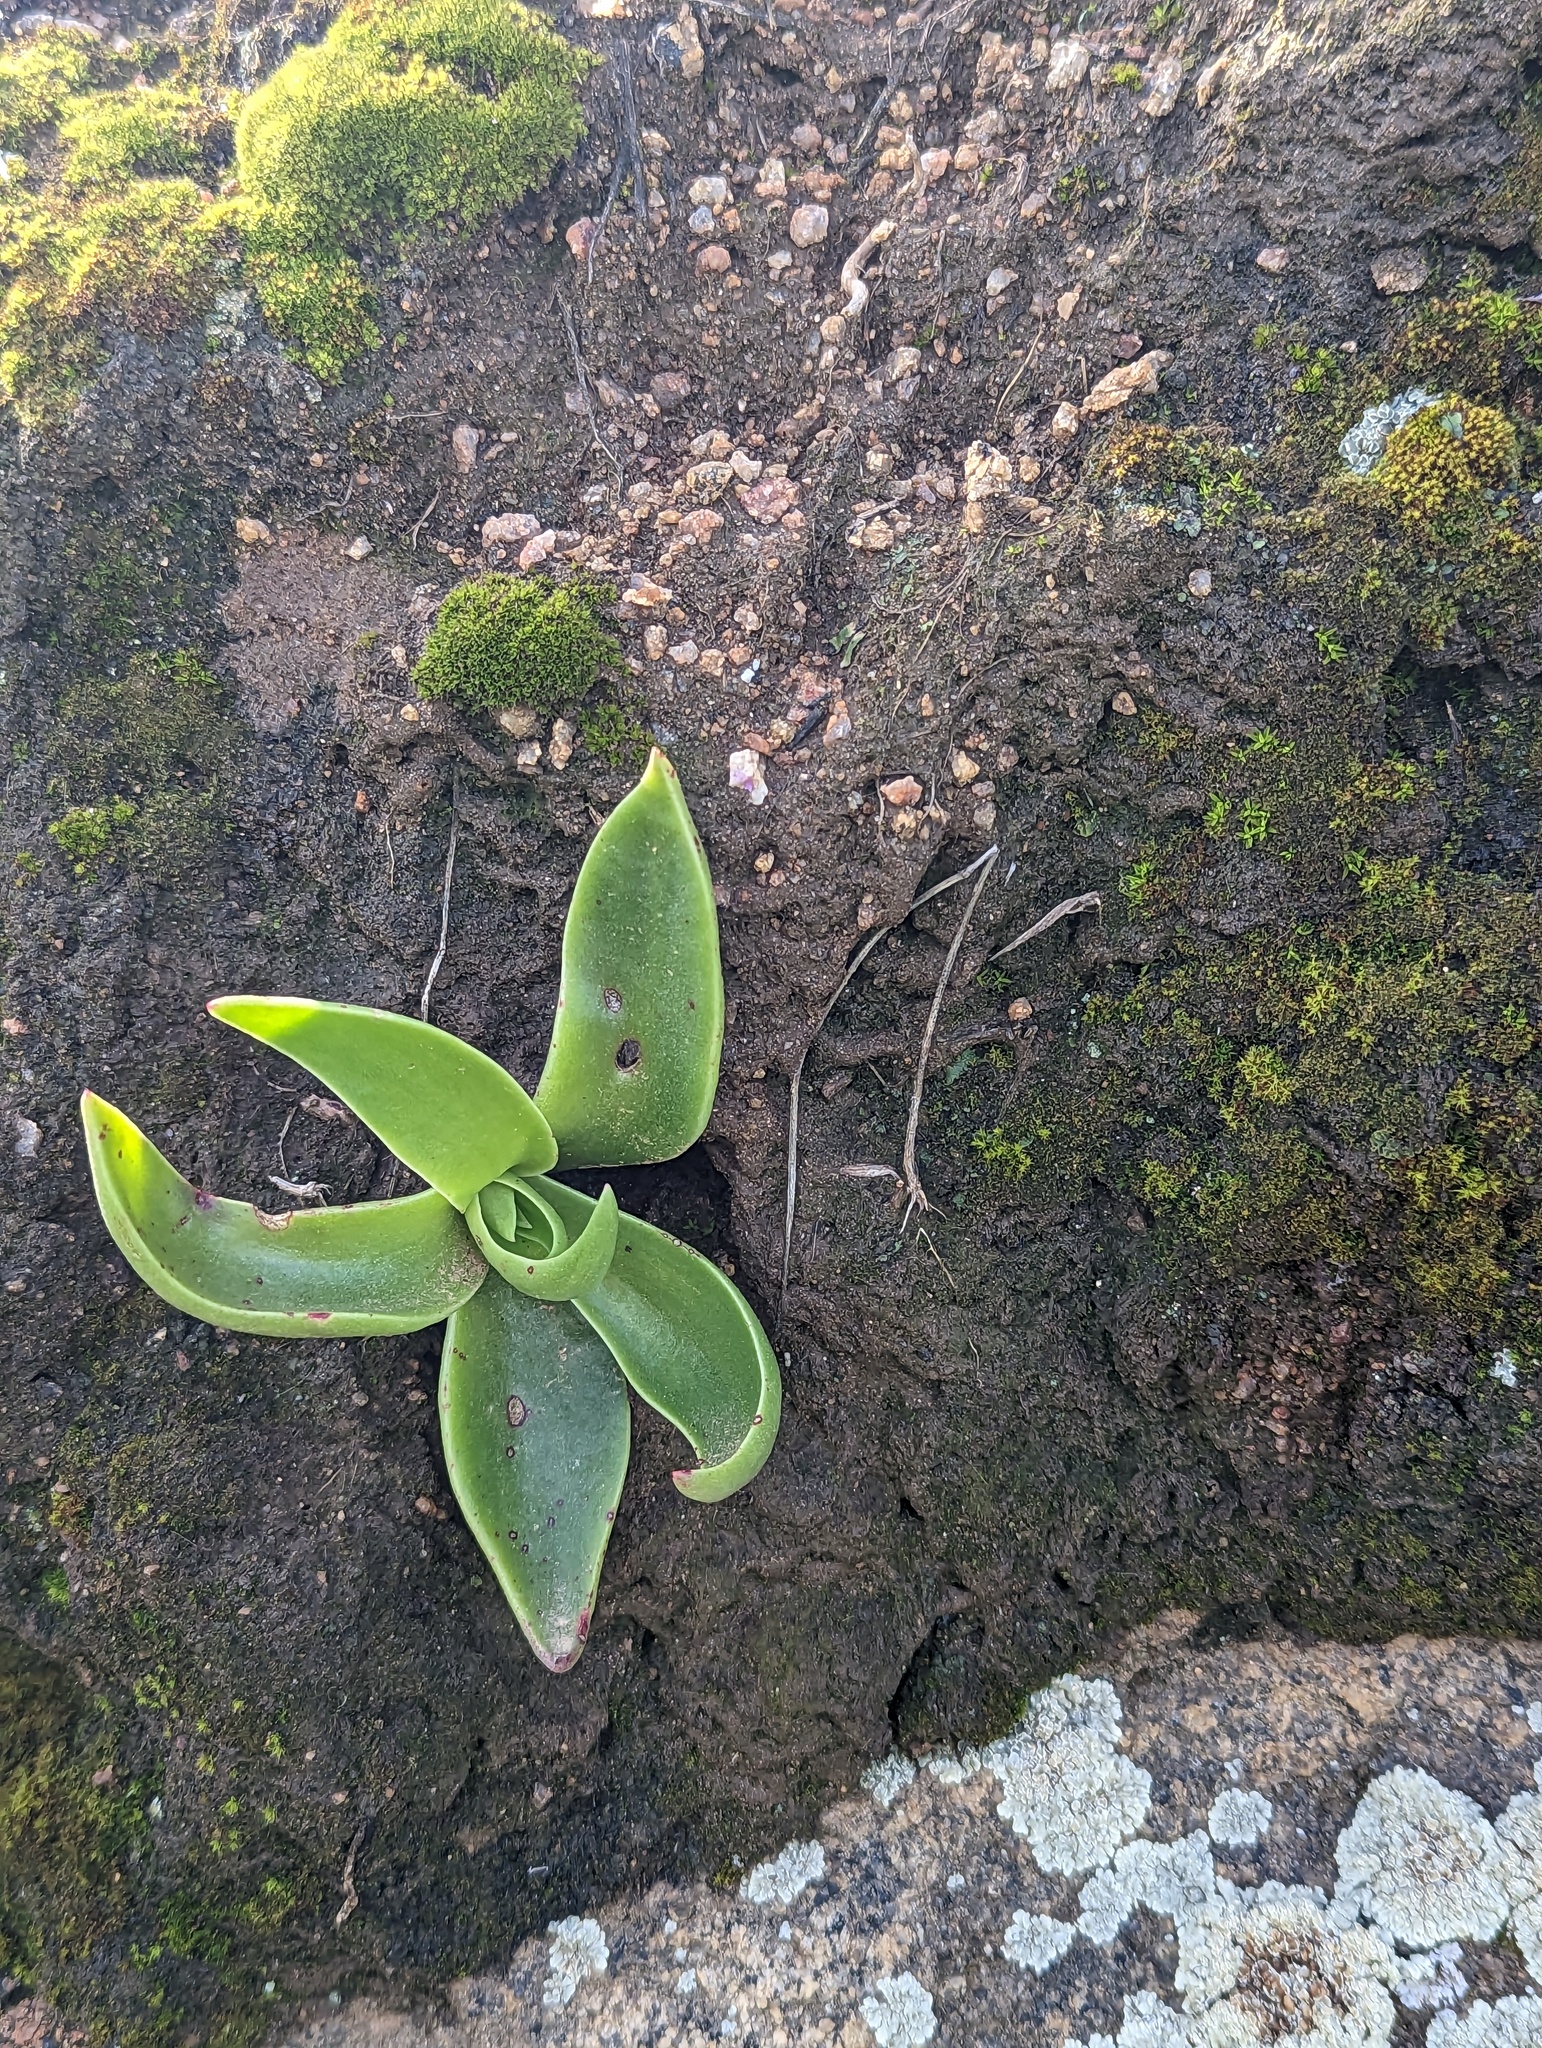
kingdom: Plantae
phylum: Tracheophyta
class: Magnoliopsida
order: Saxifragales
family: Crassulaceae
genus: Dudleya
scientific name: Dudleya lanceolata
